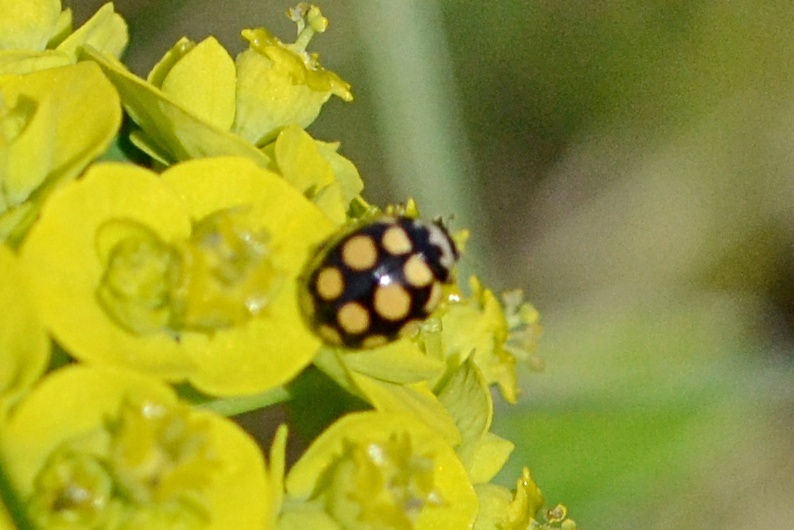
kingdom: Animalia
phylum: Arthropoda
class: Insecta
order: Coleoptera
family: Coccinellidae
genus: Coccinula
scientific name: Coccinula quatuordecimpustulata
